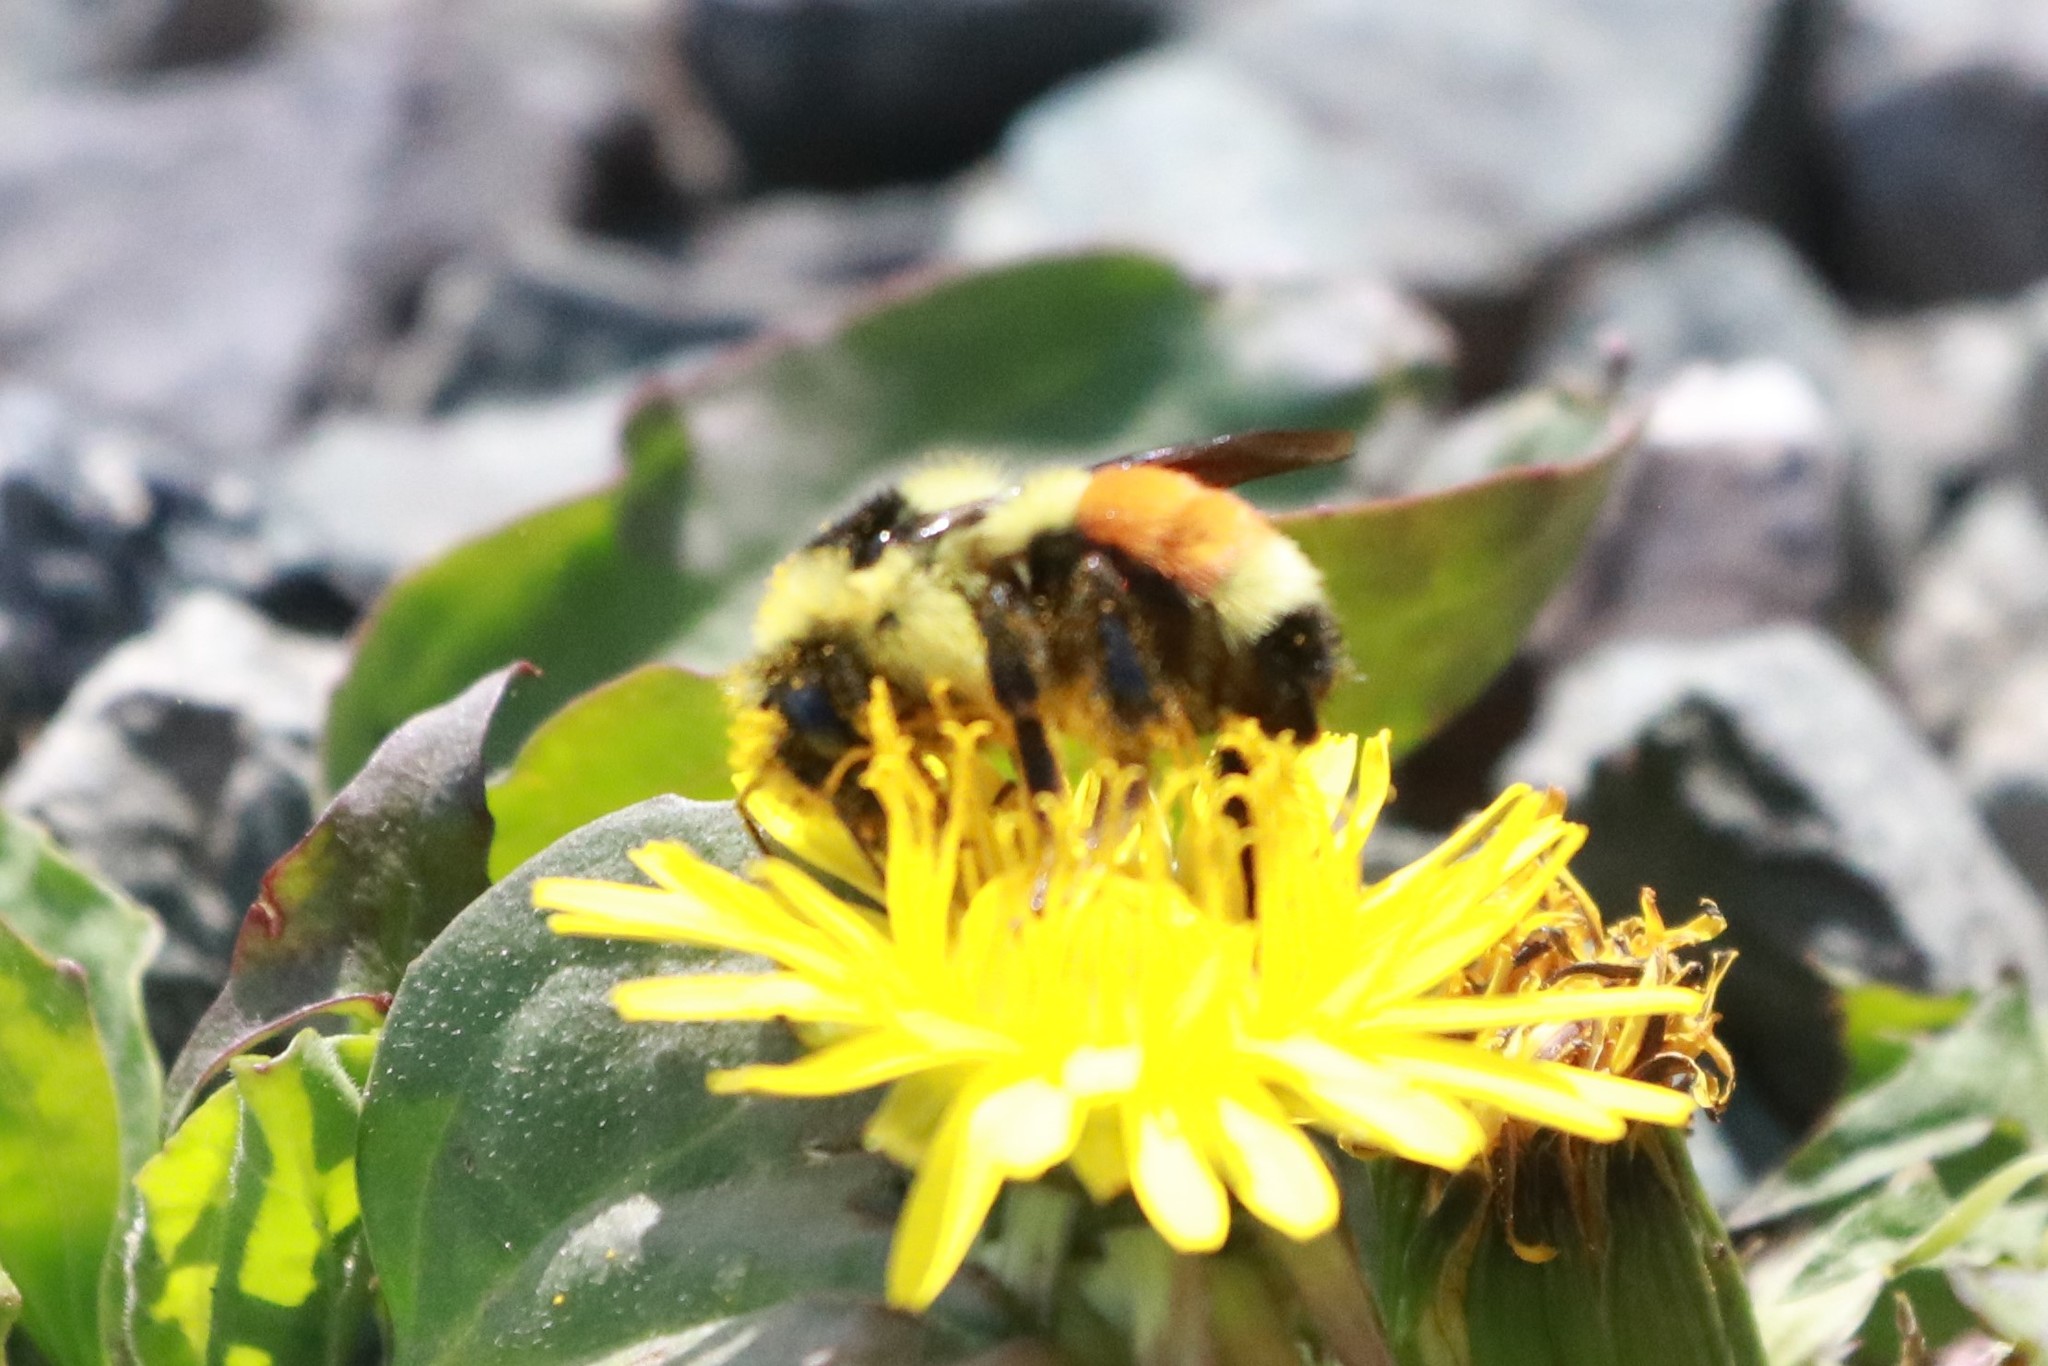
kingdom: Animalia
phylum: Arthropoda
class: Insecta
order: Hymenoptera
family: Apidae
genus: Bombus
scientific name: Bombus ternarius
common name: Tri-colored bumble bee
